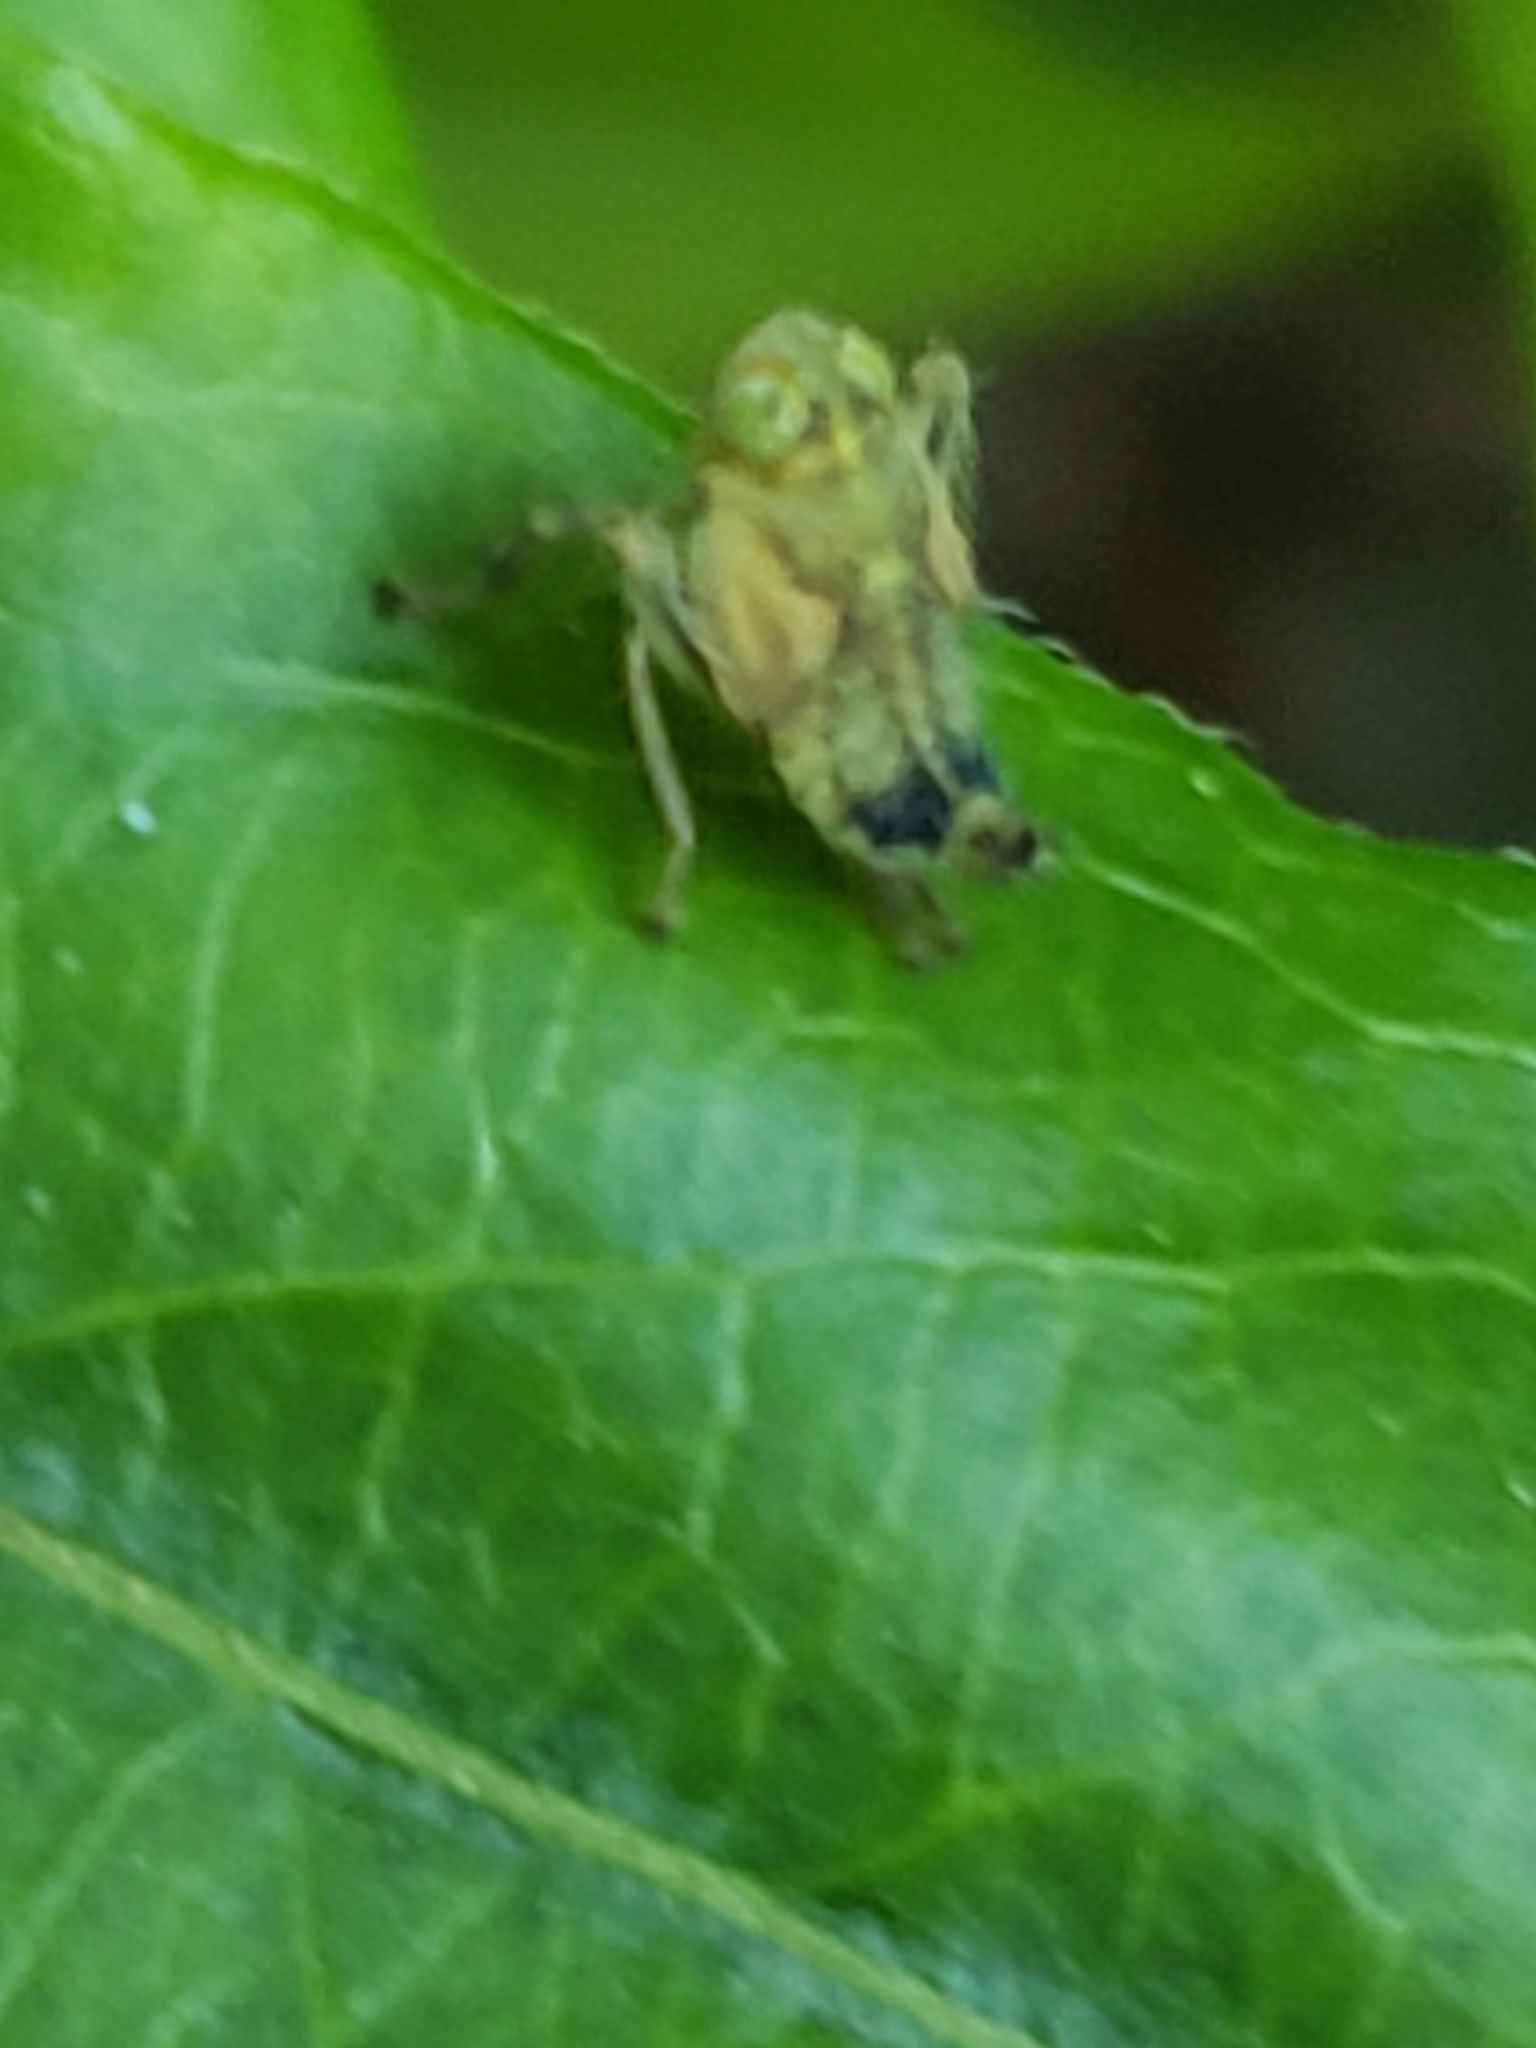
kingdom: Animalia
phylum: Arthropoda
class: Insecta
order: Hemiptera
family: Cicadellidae
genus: Jikradia
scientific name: Jikradia olitoria
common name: Coppery leafhopper
